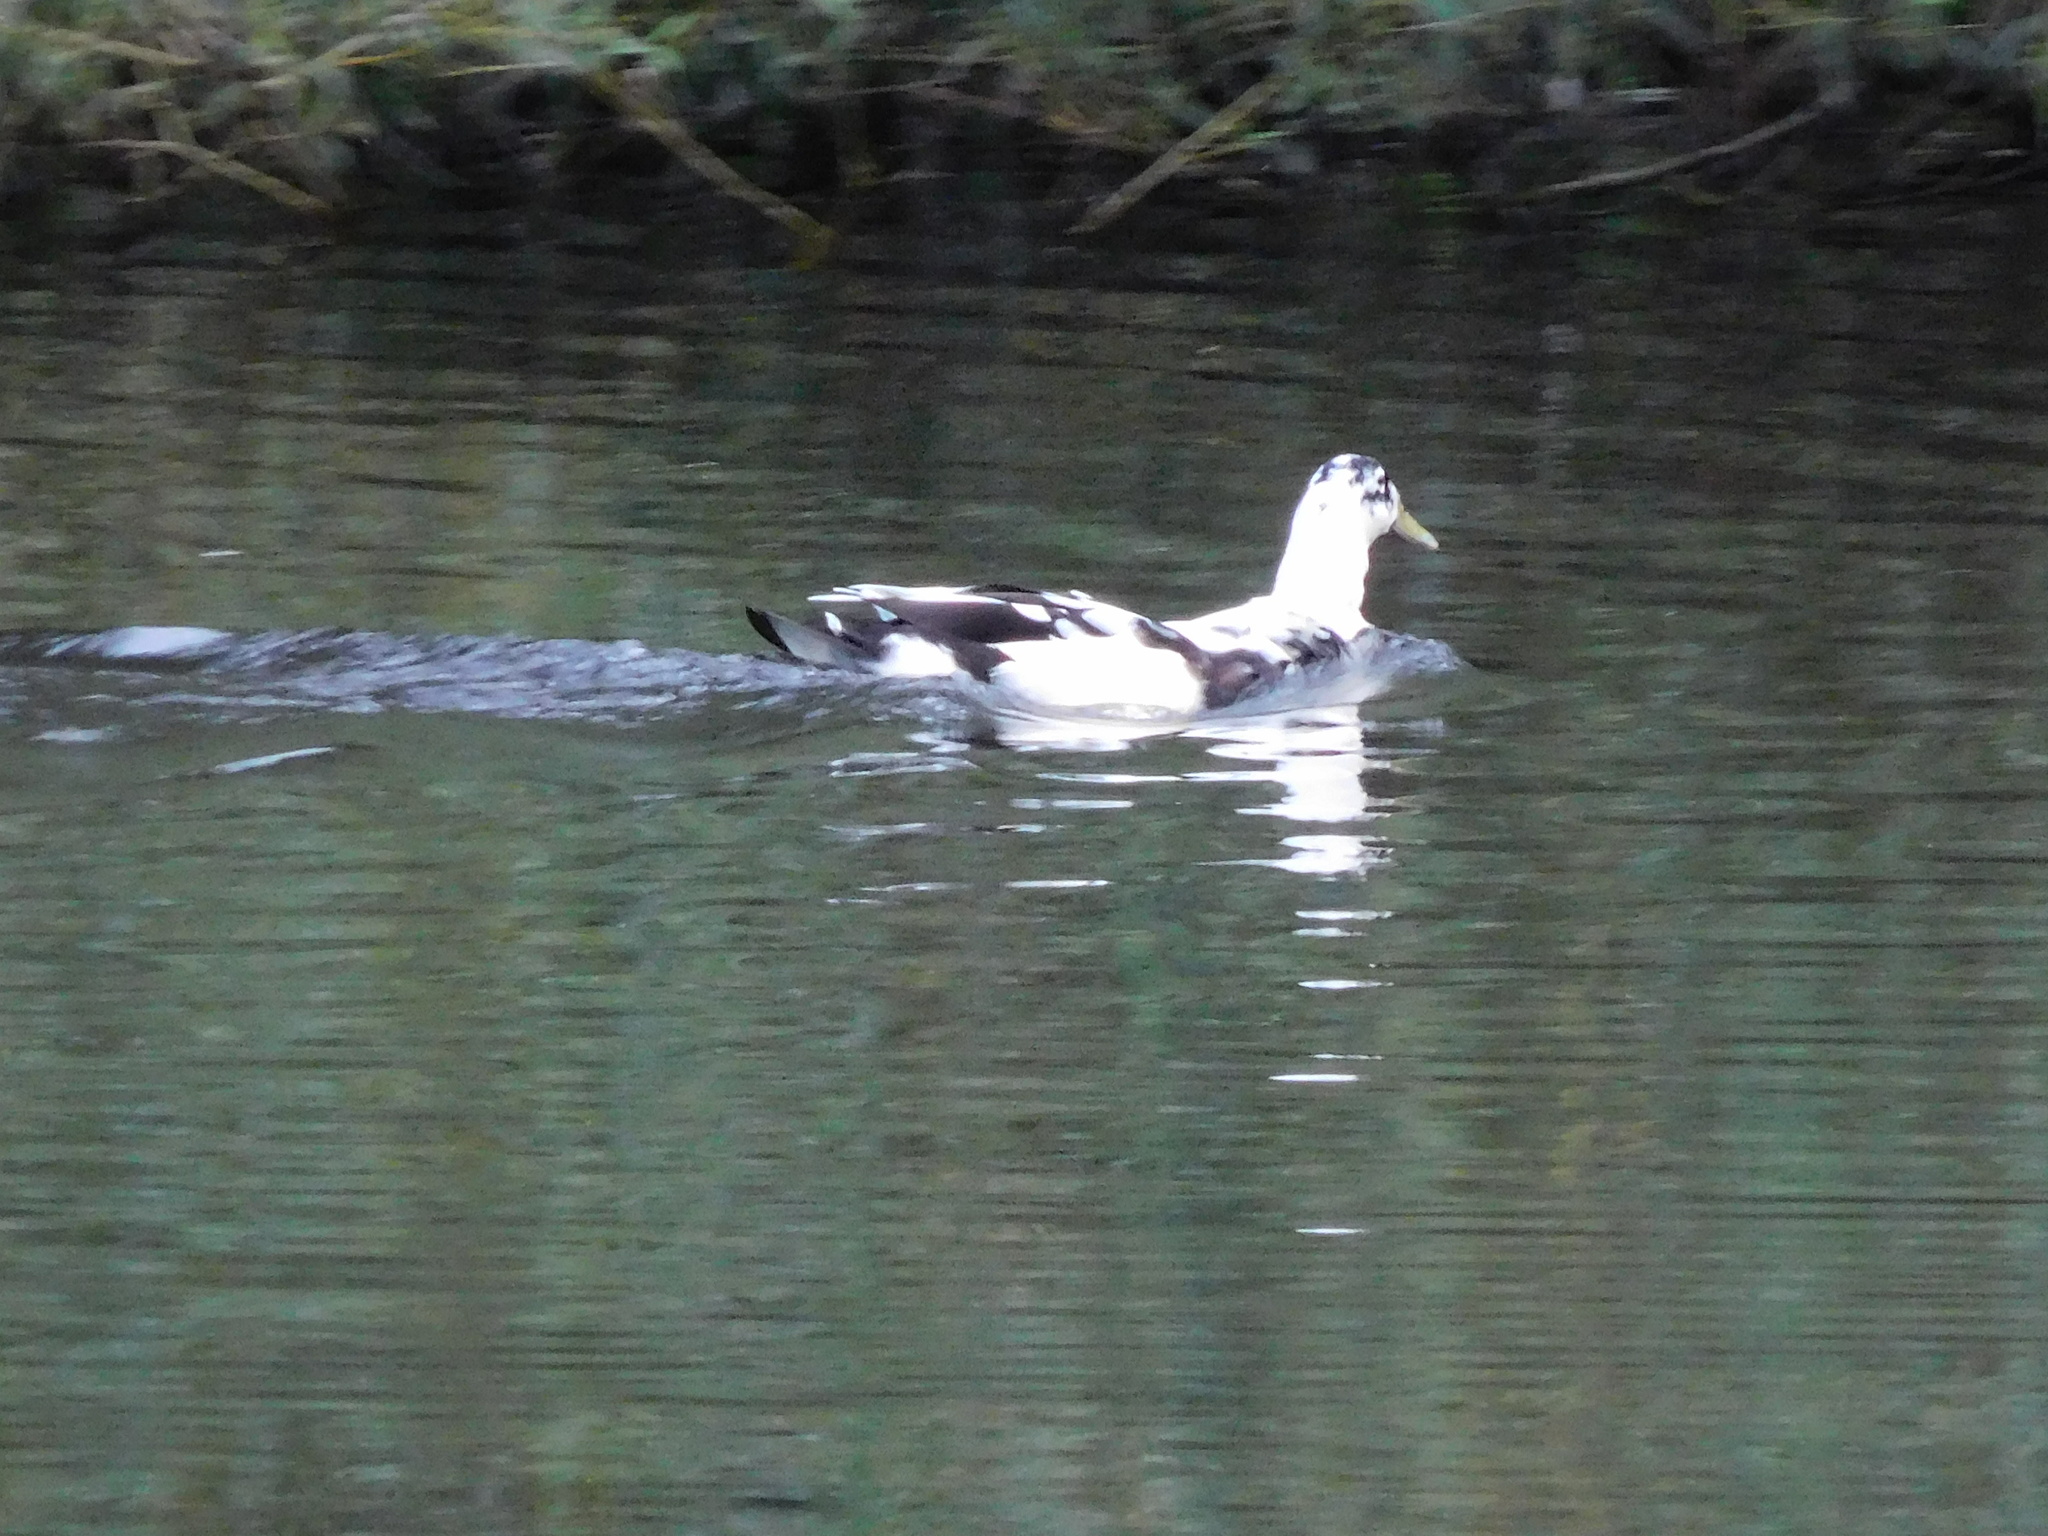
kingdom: Animalia
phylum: Chordata
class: Aves
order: Anseriformes
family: Anatidae
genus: Anas
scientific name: Anas platyrhynchos
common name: Mallard
